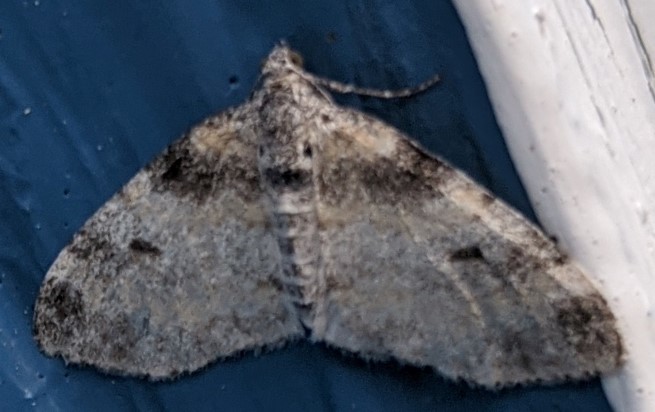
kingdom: Animalia
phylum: Arthropoda
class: Insecta
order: Lepidoptera
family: Geometridae
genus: Lobophora
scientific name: Lobophora nivigerata
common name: Powdered bigwing
